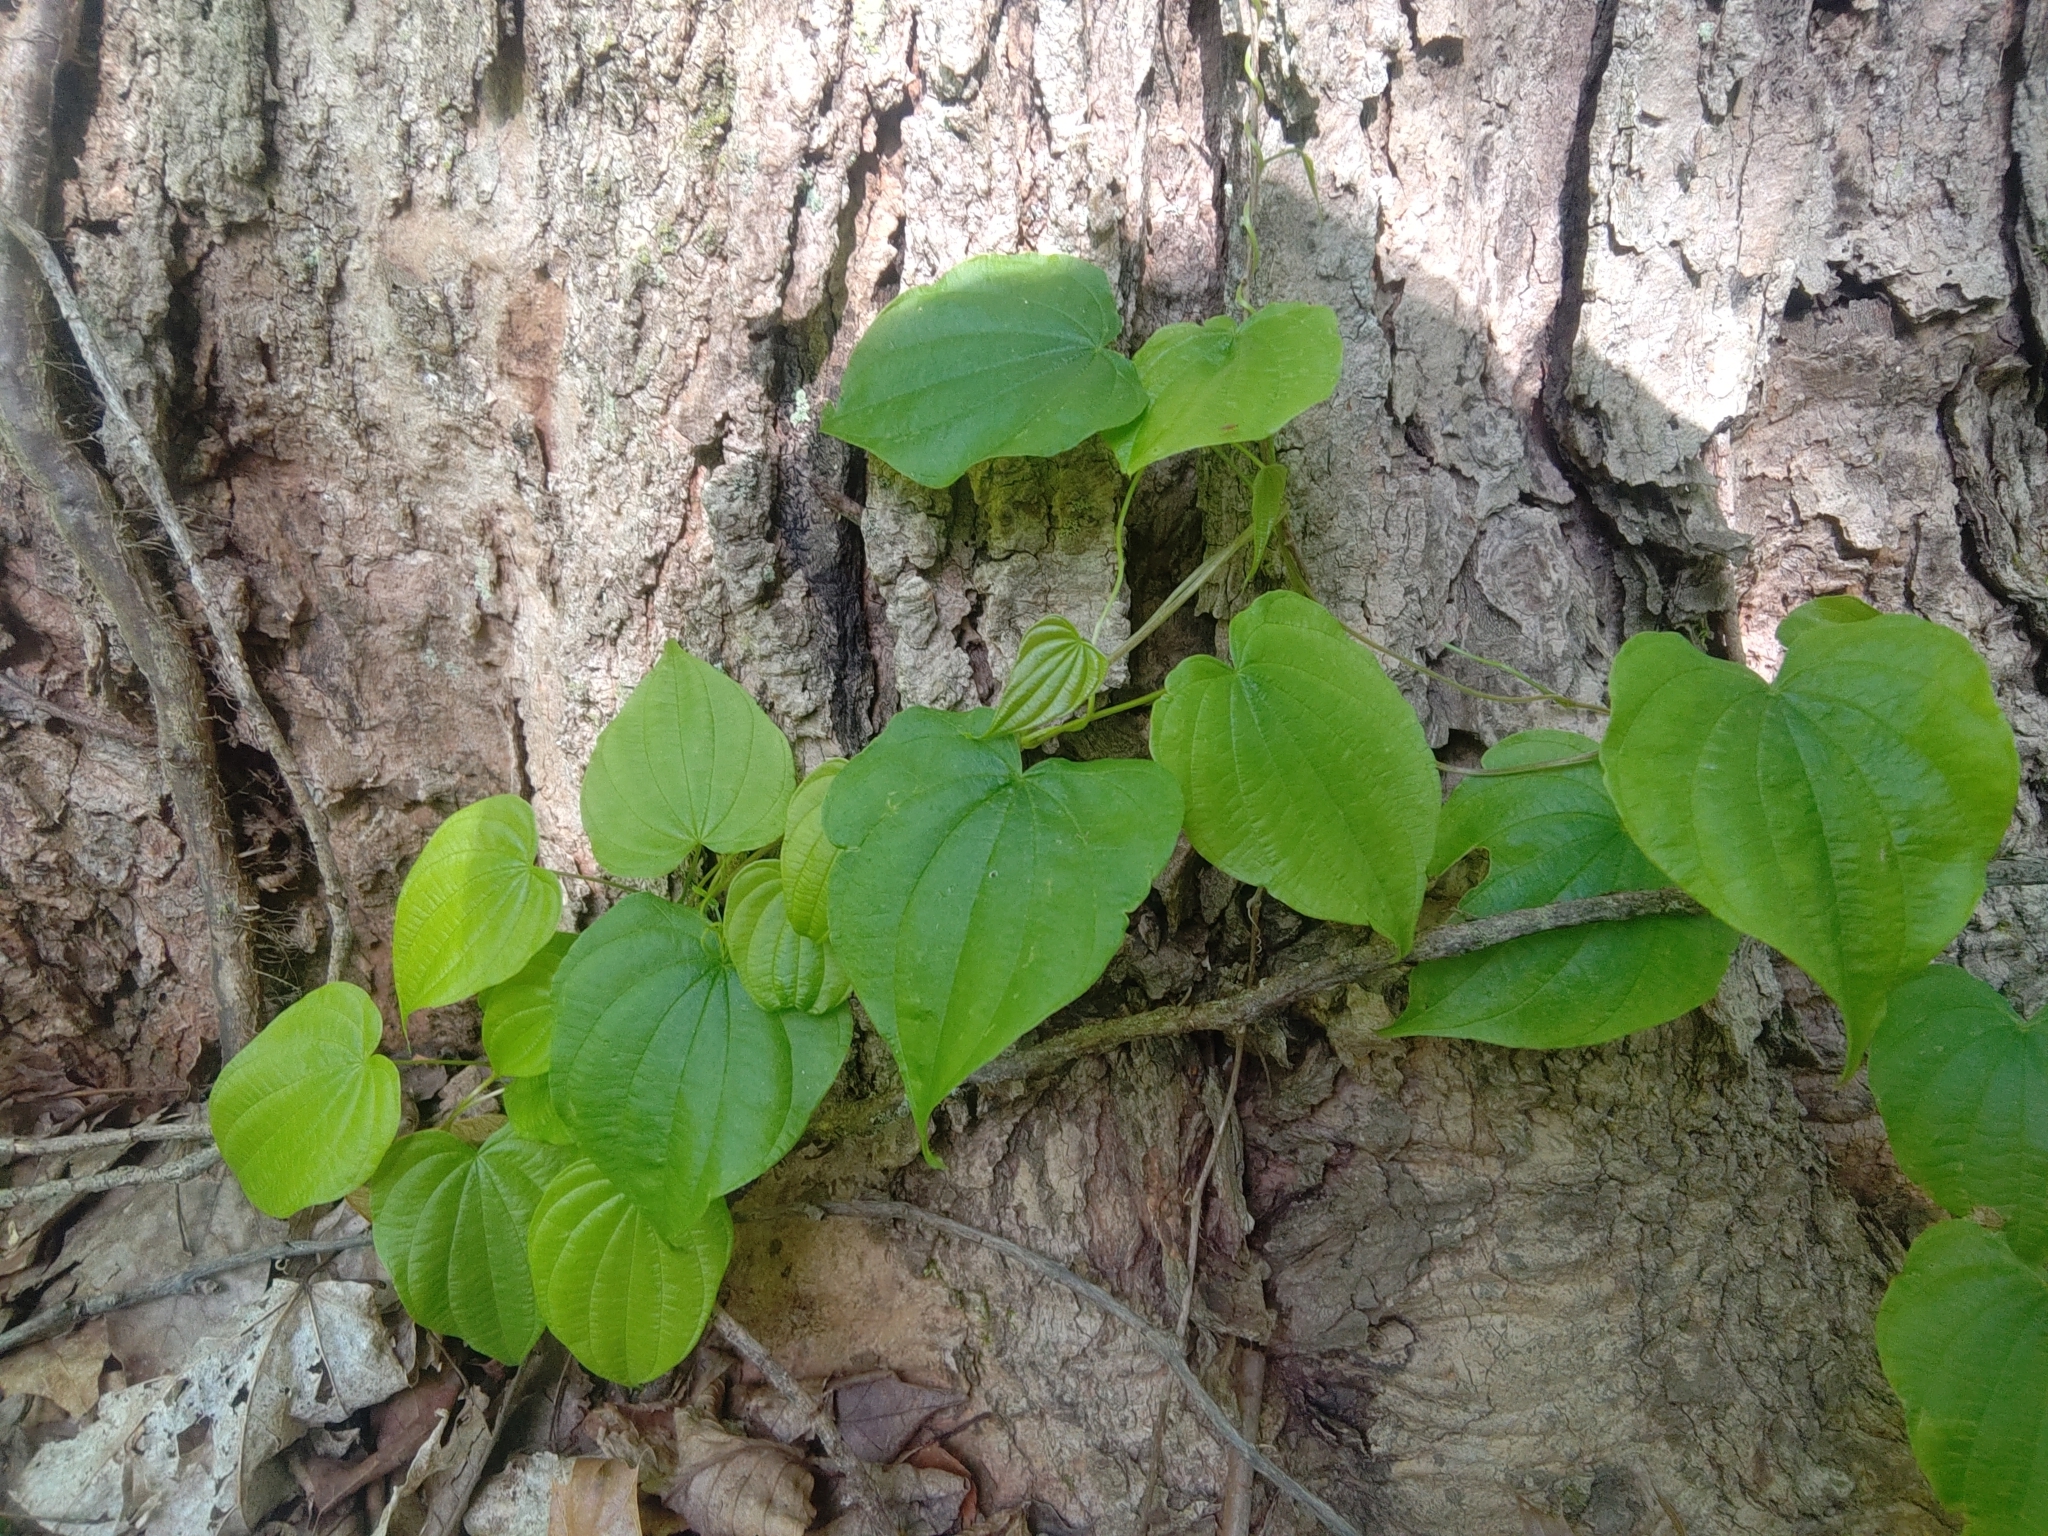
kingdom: Plantae
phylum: Tracheophyta
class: Liliopsida
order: Dioscoreales
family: Dioscoreaceae
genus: Dioscorea
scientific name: Dioscorea villosa
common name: Wild yam
